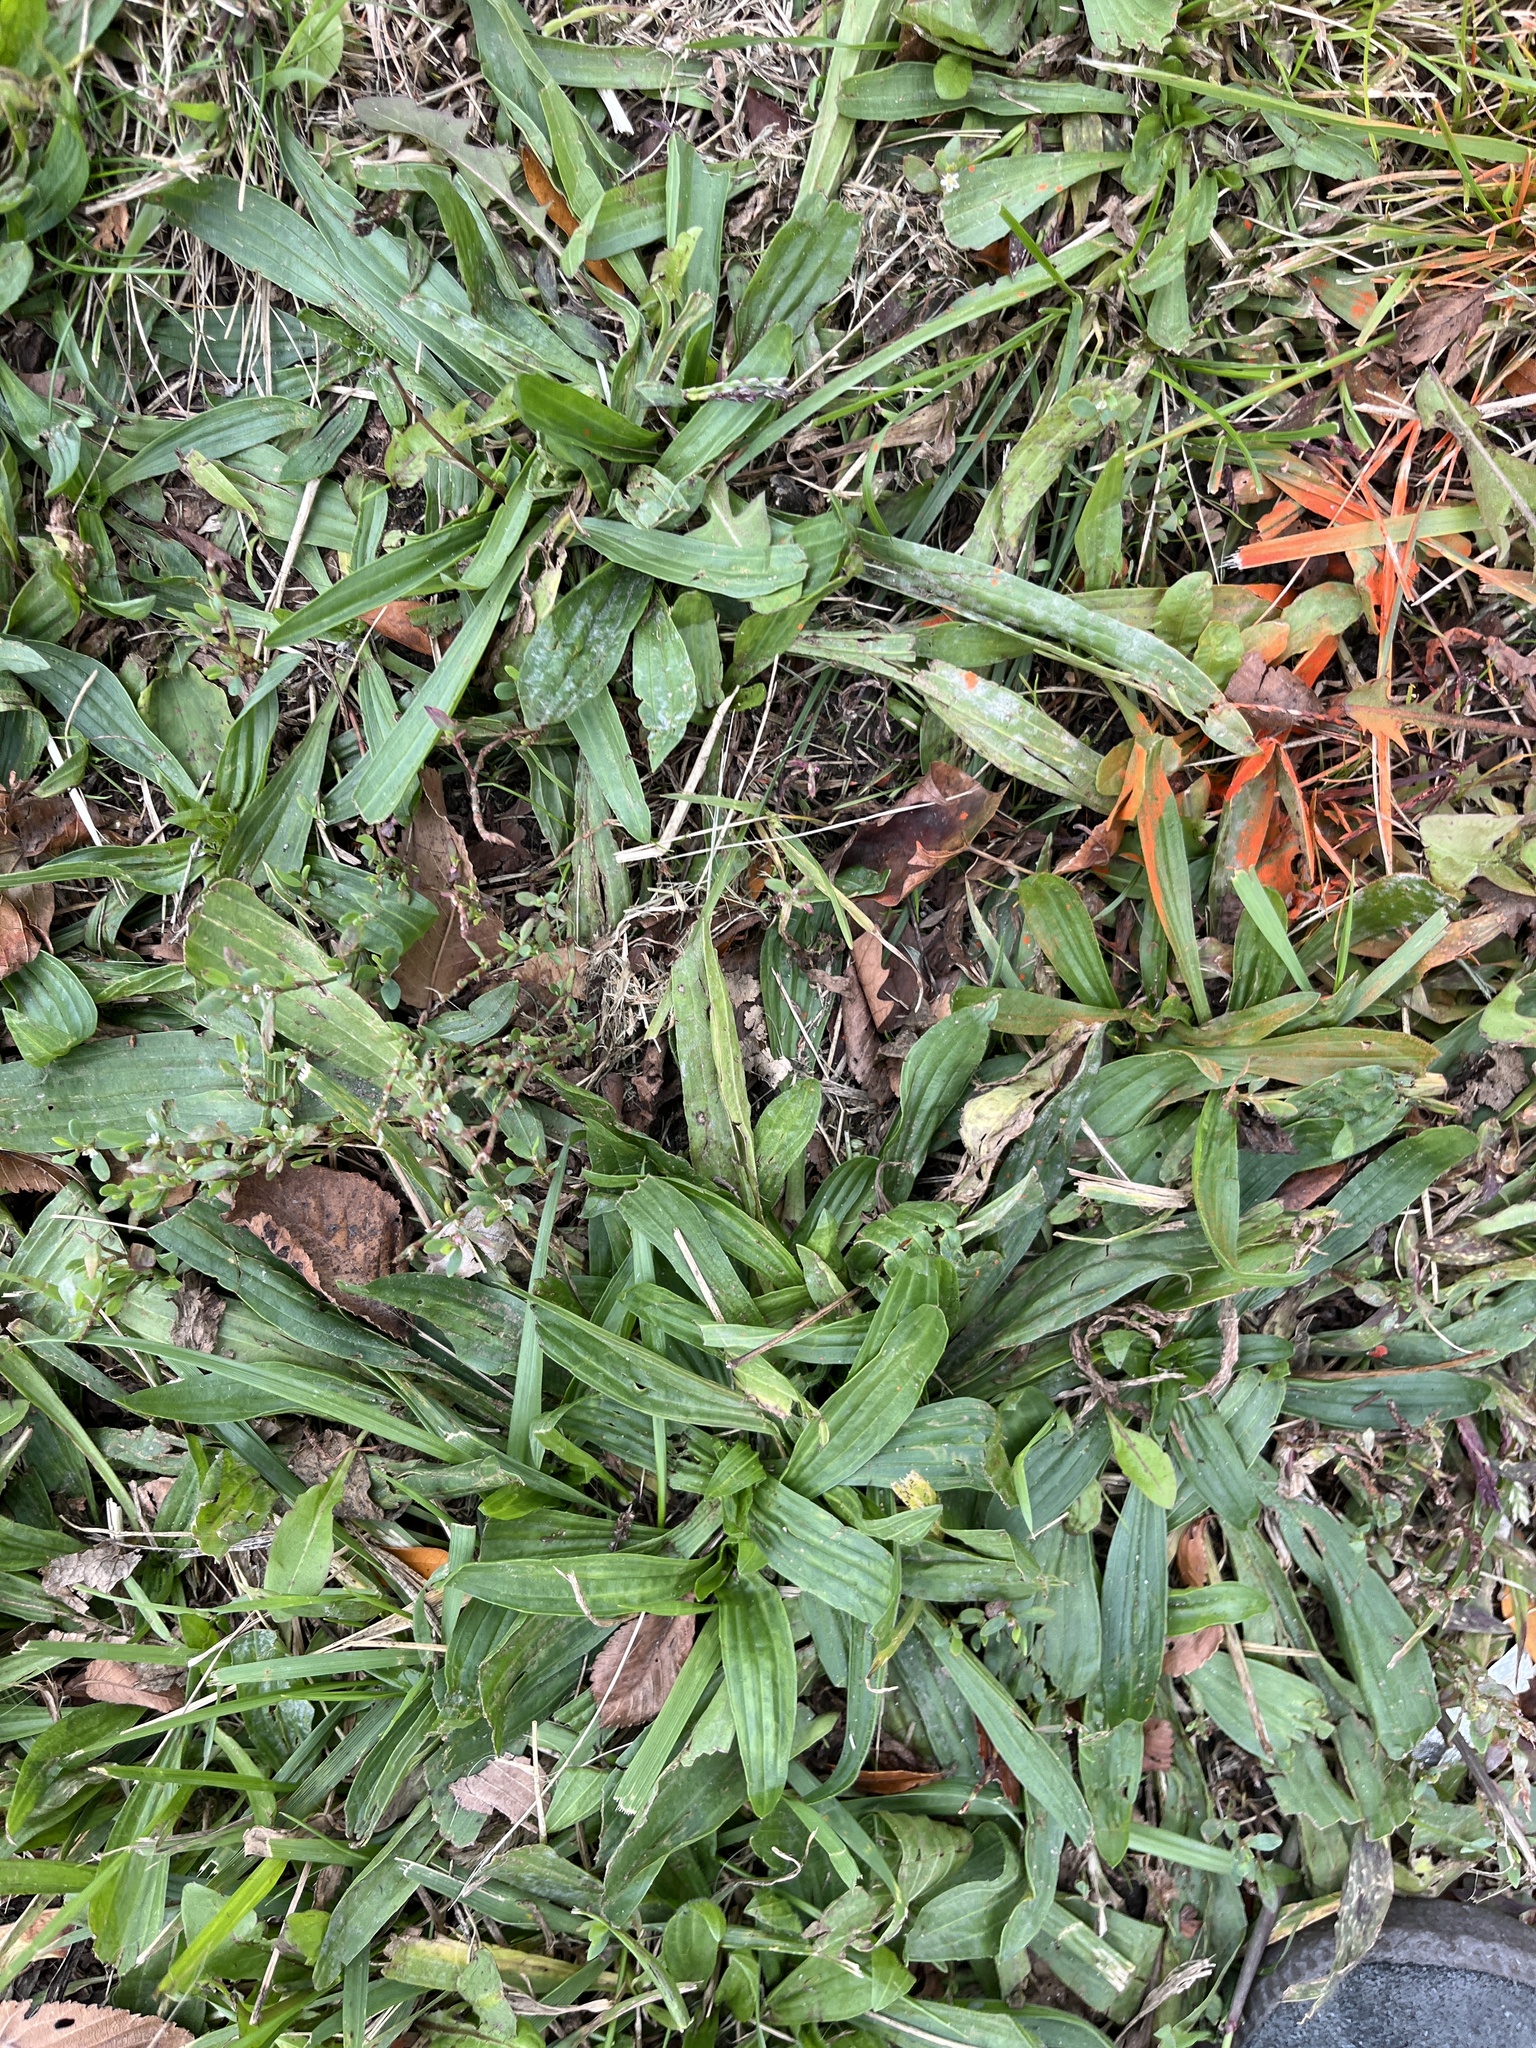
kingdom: Plantae
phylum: Tracheophyta
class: Magnoliopsida
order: Lamiales
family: Plantaginaceae
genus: Plantago
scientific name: Plantago lanceolata
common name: Ribwort plantain
